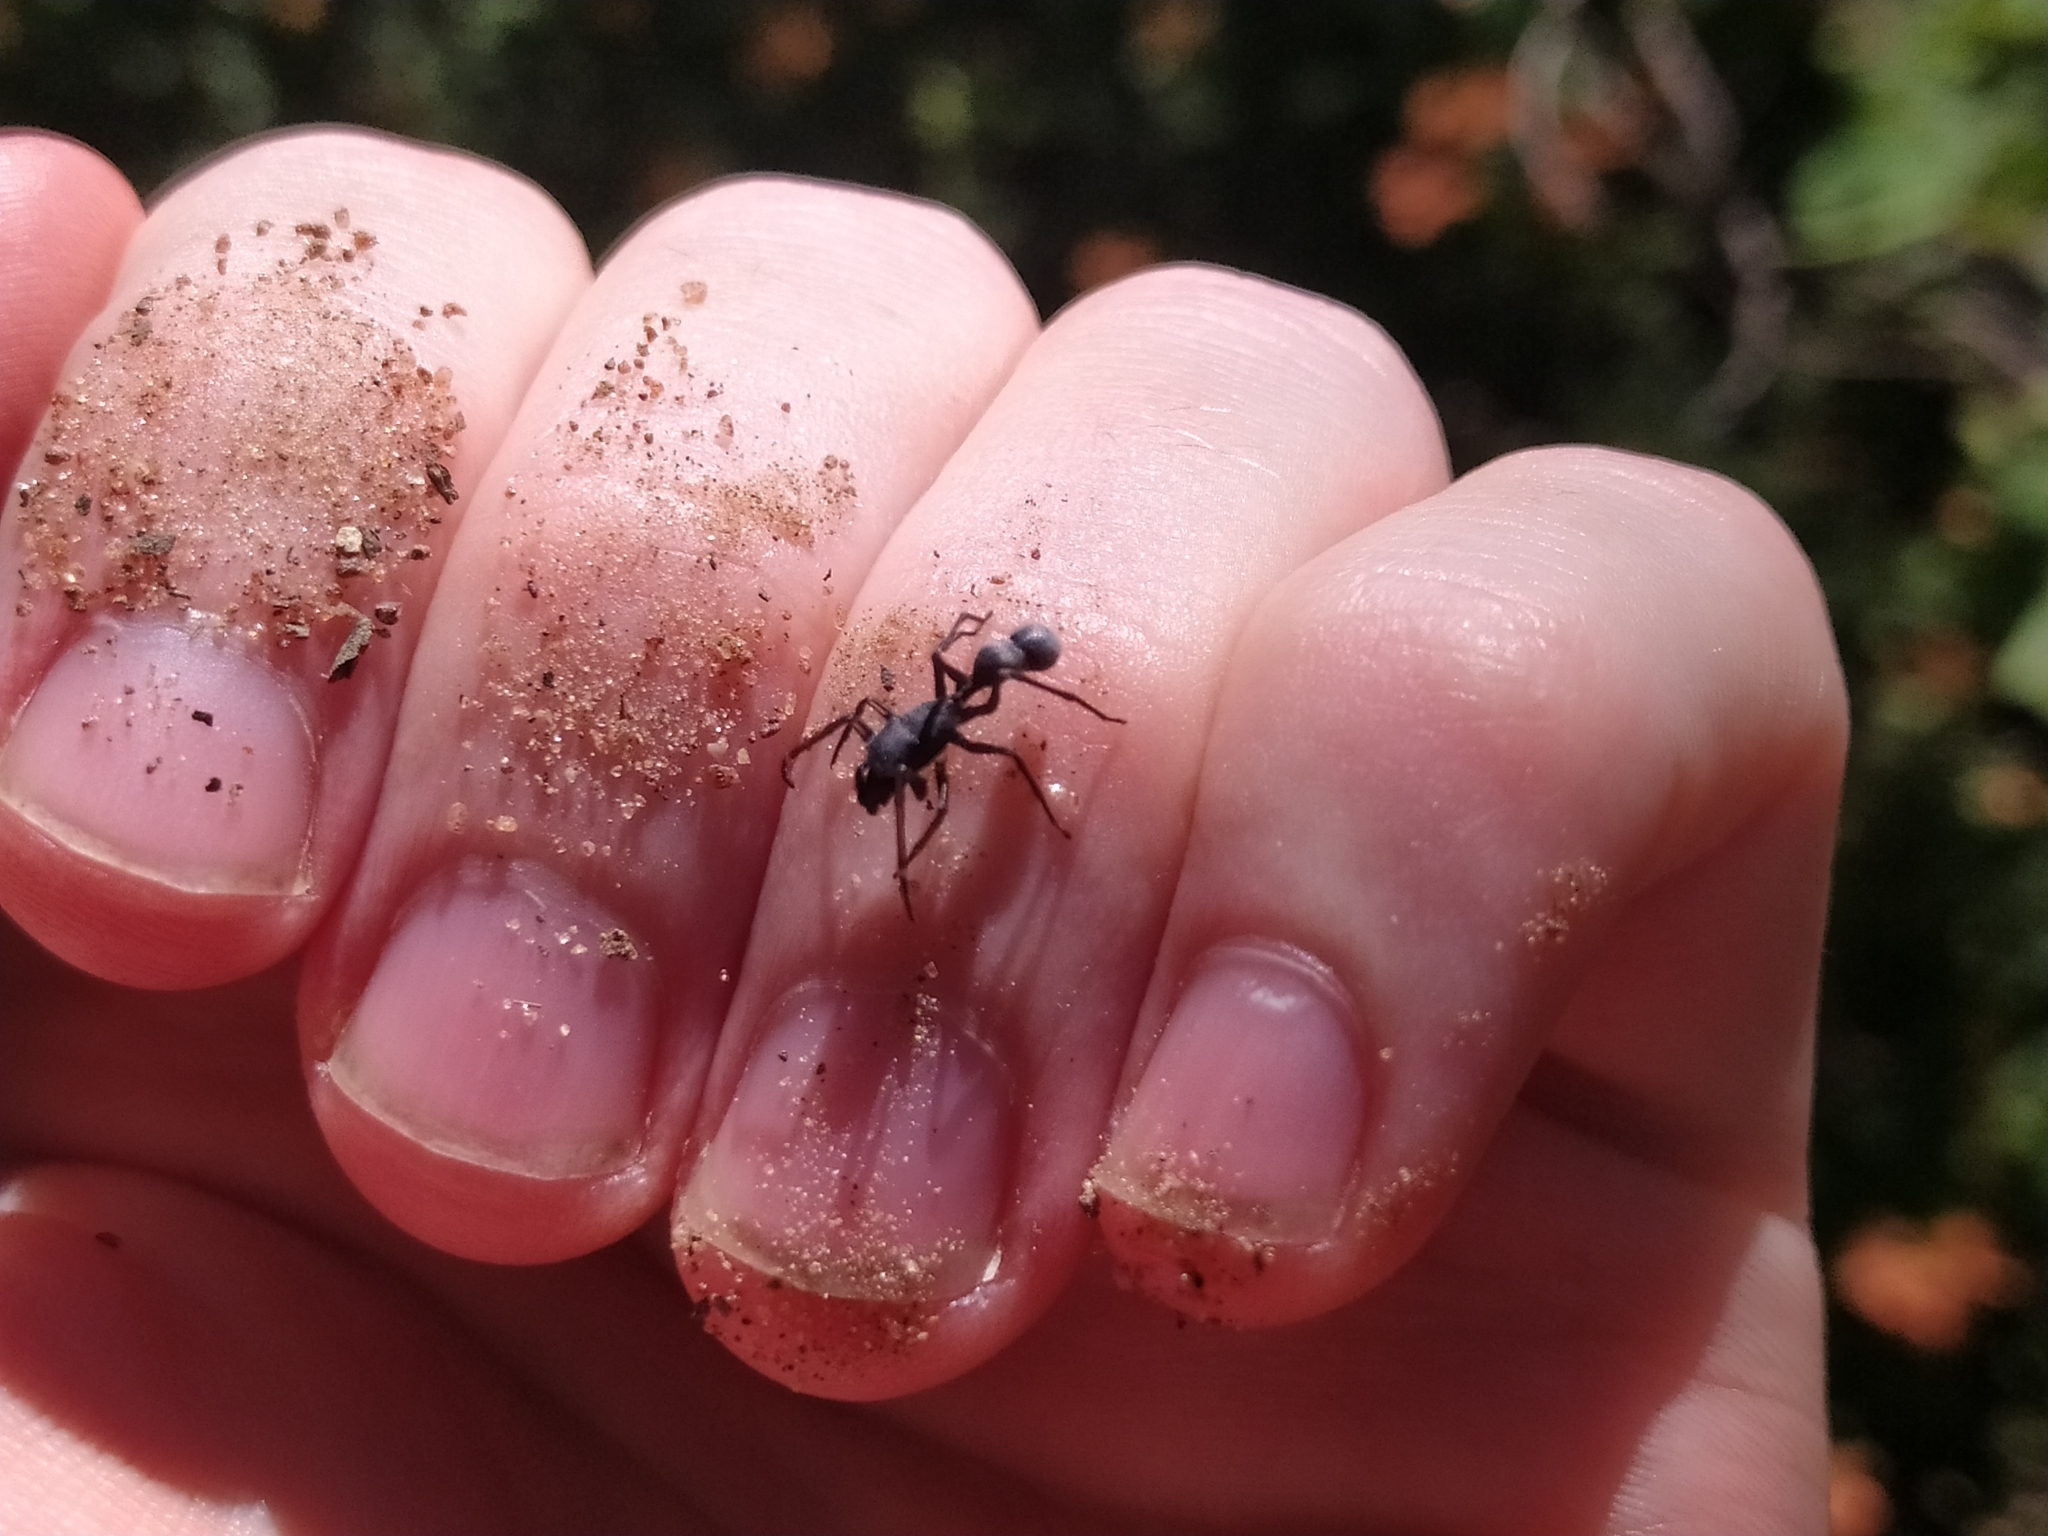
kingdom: Animalia
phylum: Arthropoda
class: Arachnida
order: Araneae
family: Salticidae
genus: Kima
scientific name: Kima variabilis
